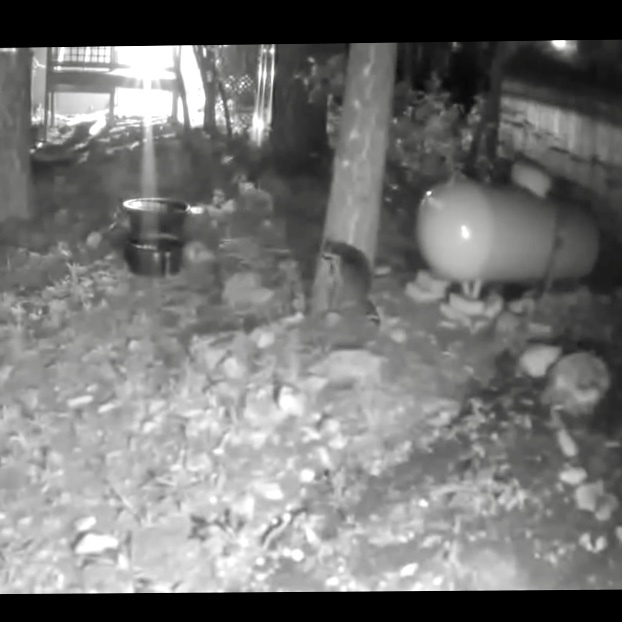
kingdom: Animalia
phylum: Chordata
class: Mammalia
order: Carnivora
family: Procyonidae
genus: Procyon
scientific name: Procyon lotor
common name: Raccoon
